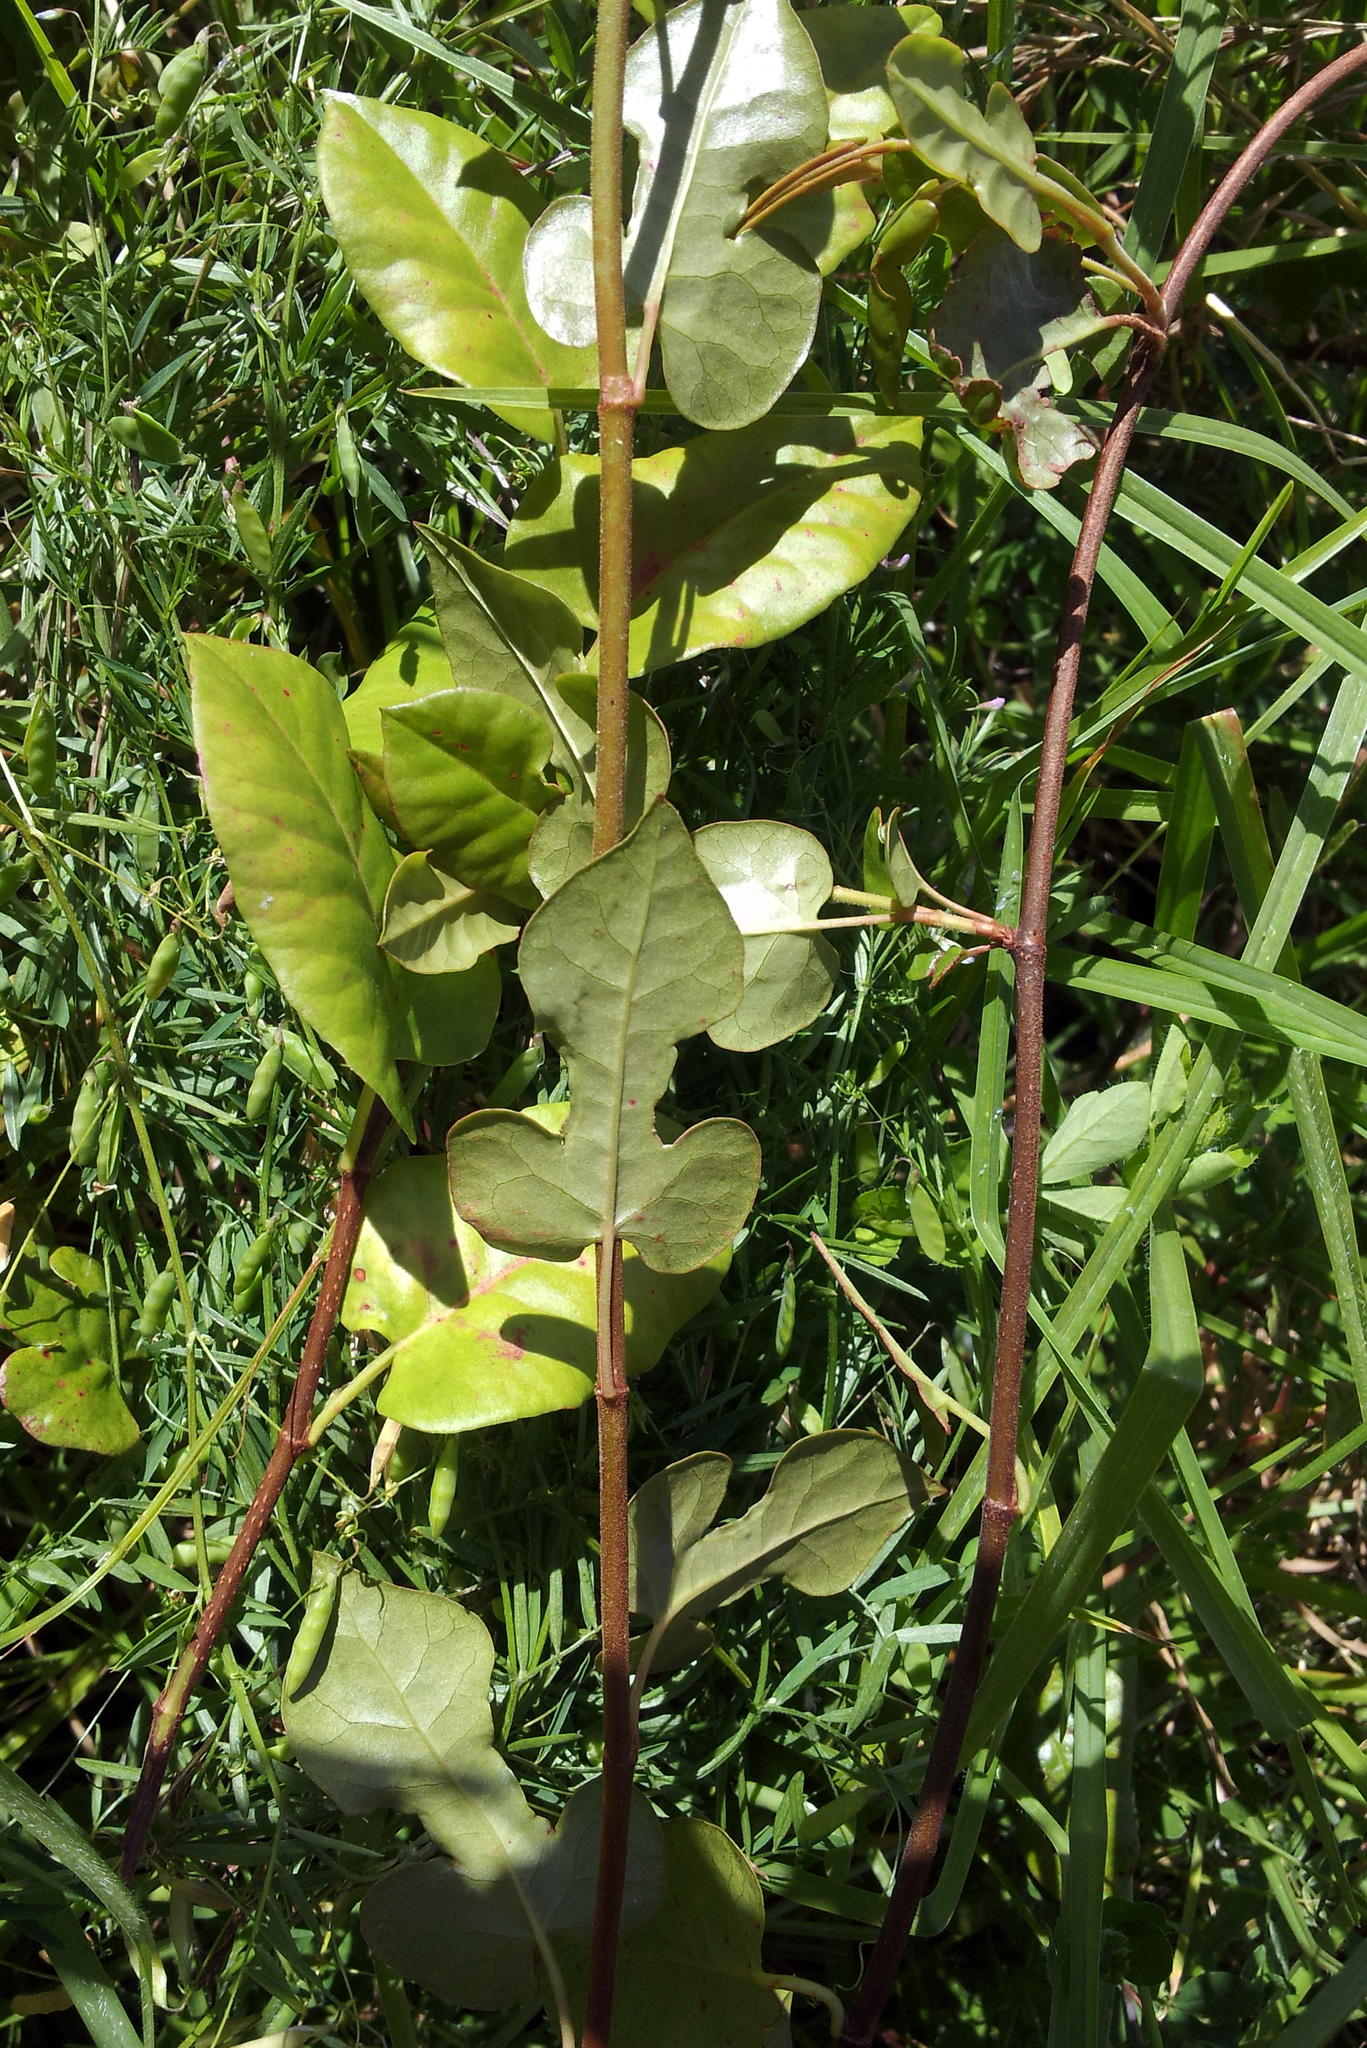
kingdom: Plantae
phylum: Tracheophyta
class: Magnoliopsida
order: Caryophyllales
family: Polygonaceae
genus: Muehlenbeckia
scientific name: Muehlenbeckia complexa
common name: Wireplant
